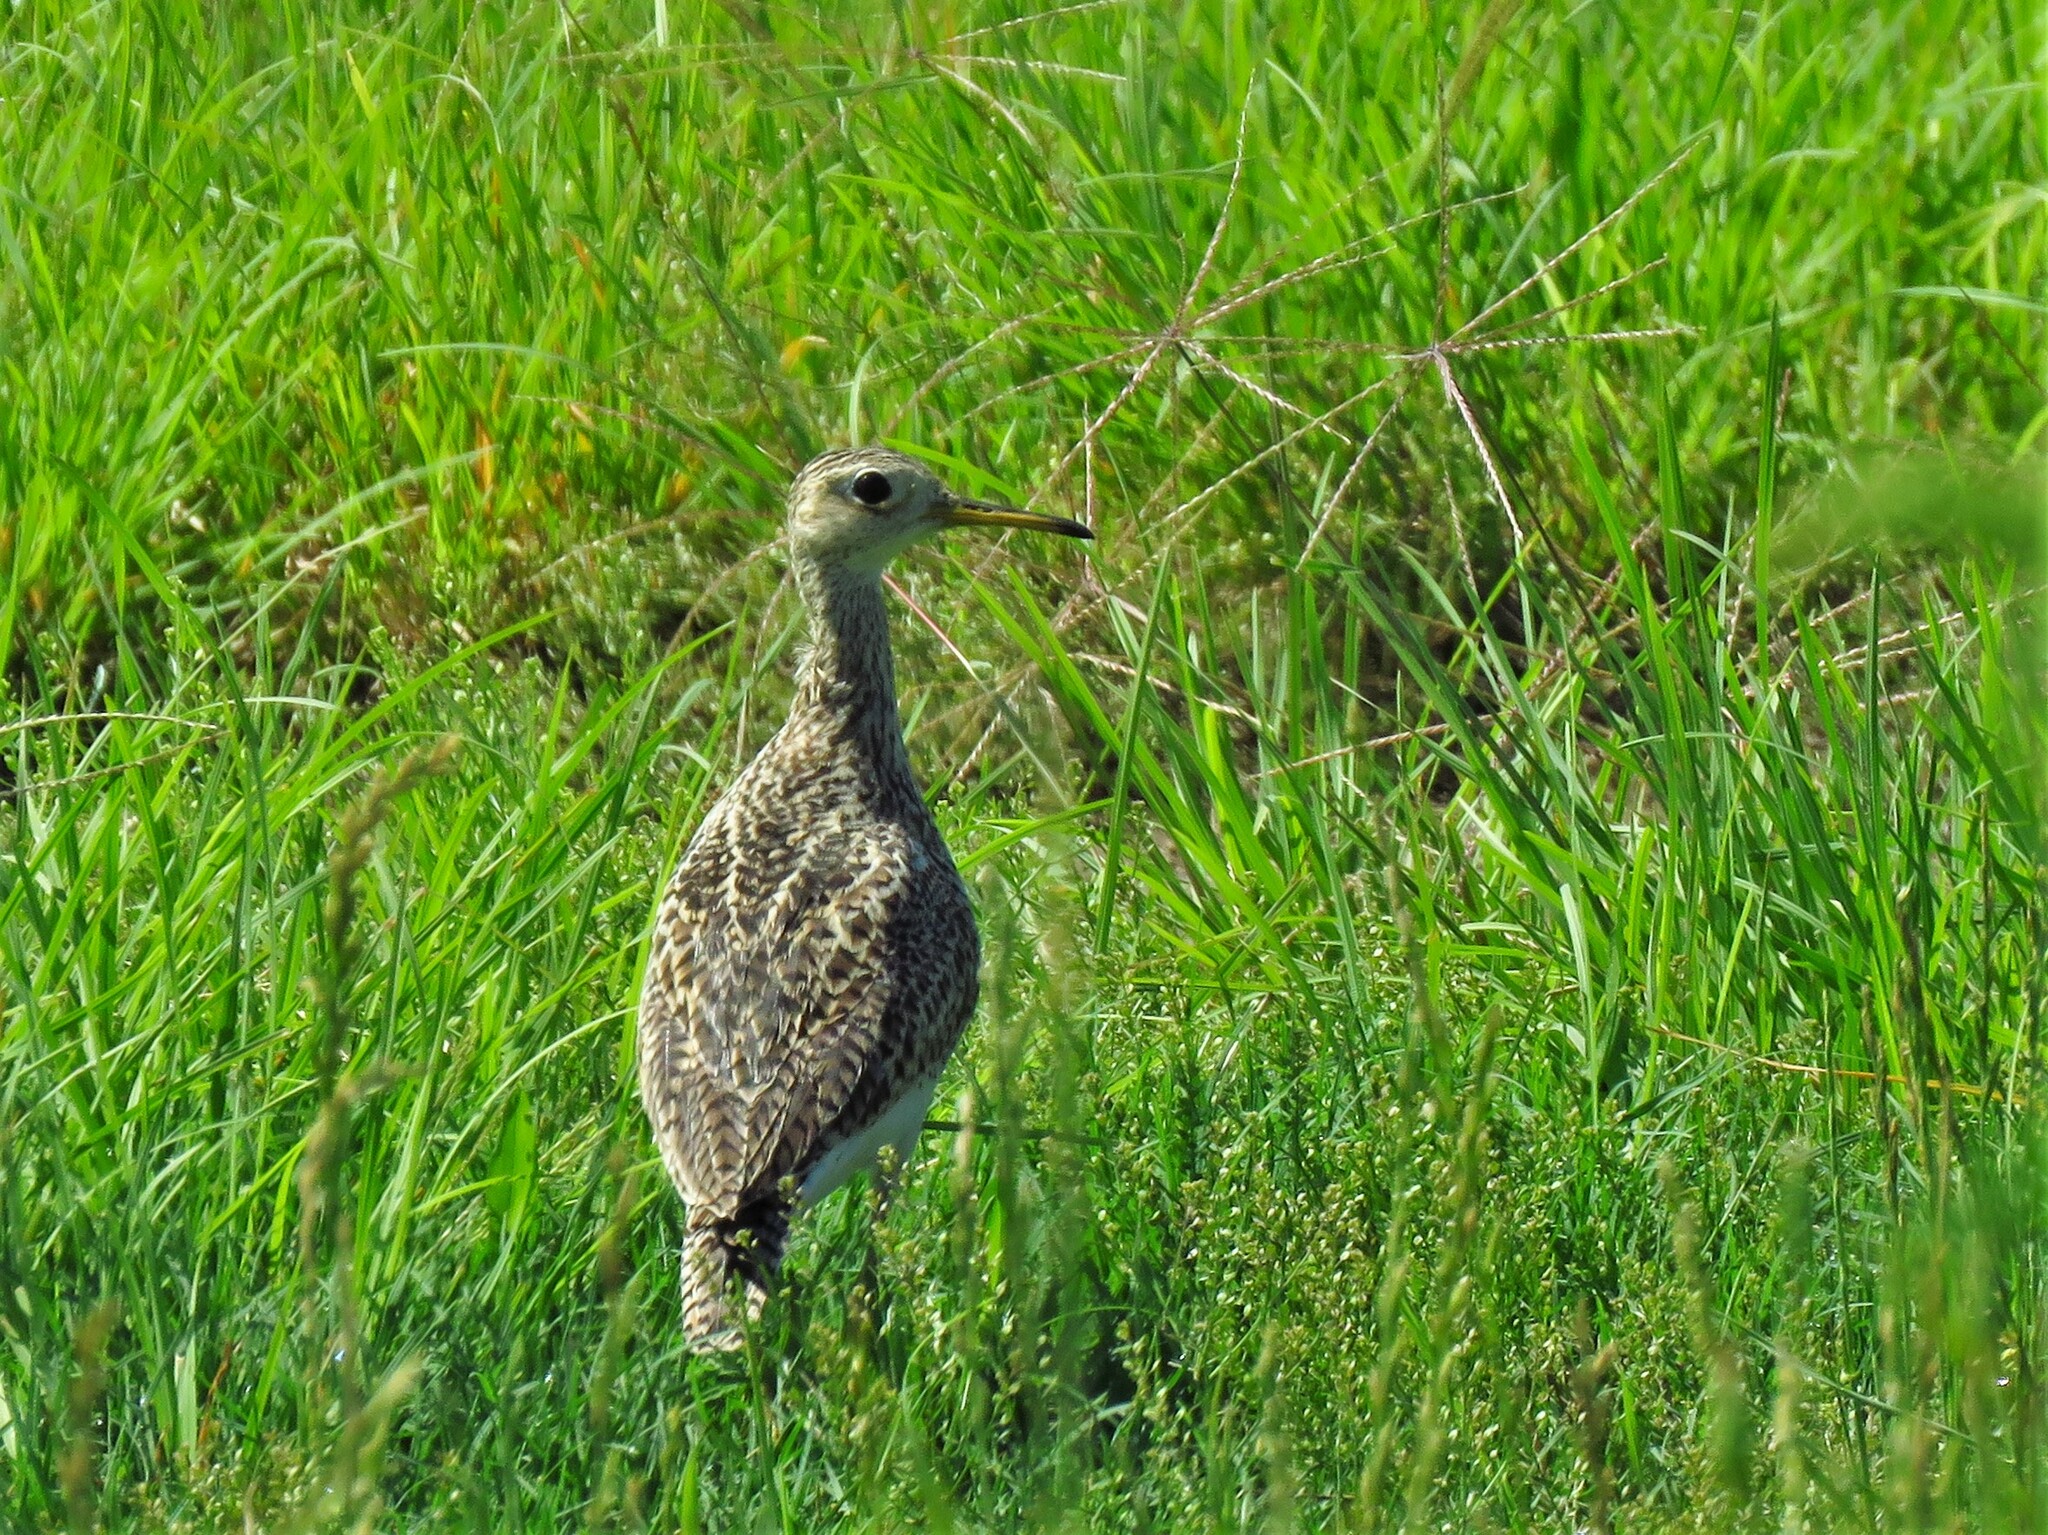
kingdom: Animalia
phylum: Chordata
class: Aves
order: Charadriiformes
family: Scolopacidae
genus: Bartramia
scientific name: Bartramia longicauda
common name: Upland sandpiper
